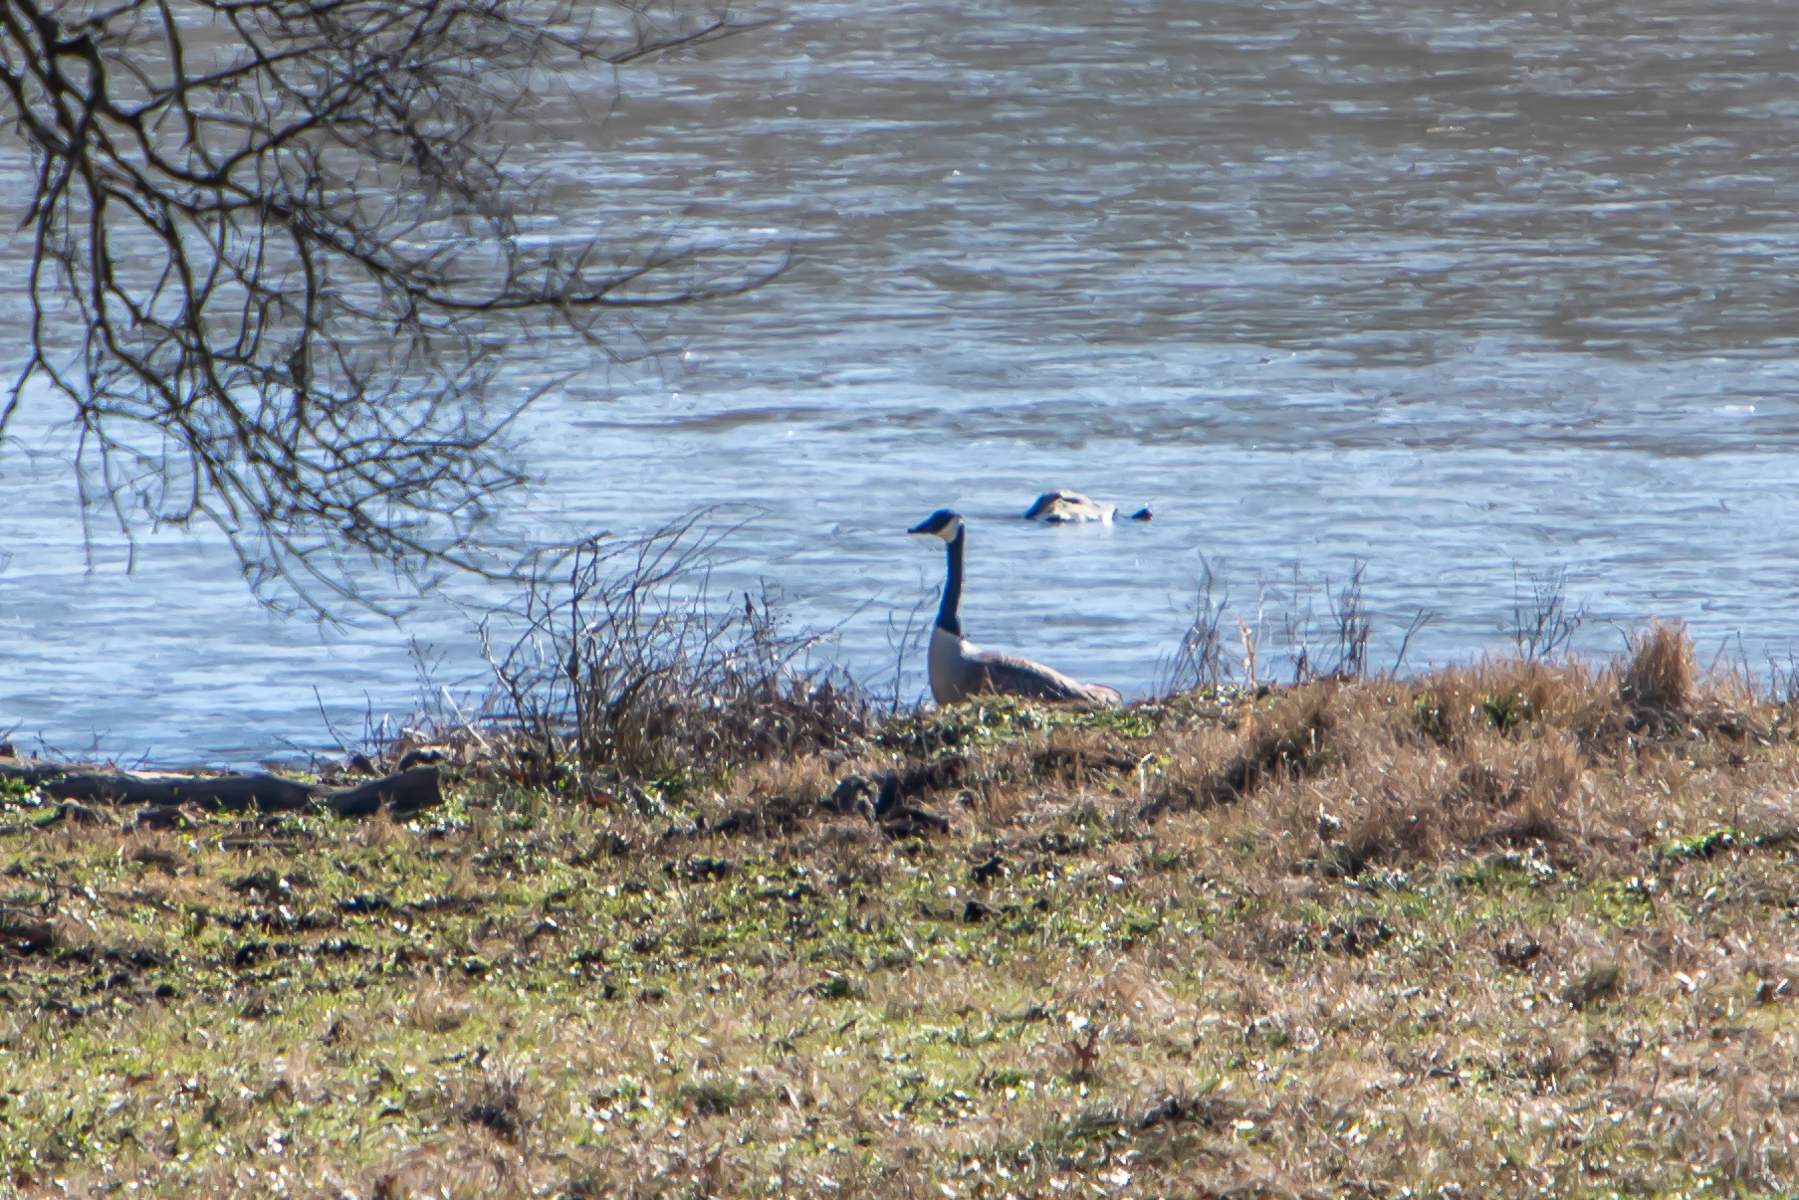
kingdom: Animalia
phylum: Chordata
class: Aves
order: Anseriformes
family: Anatidae
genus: Branta
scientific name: Branta canadensis
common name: Canada goose
